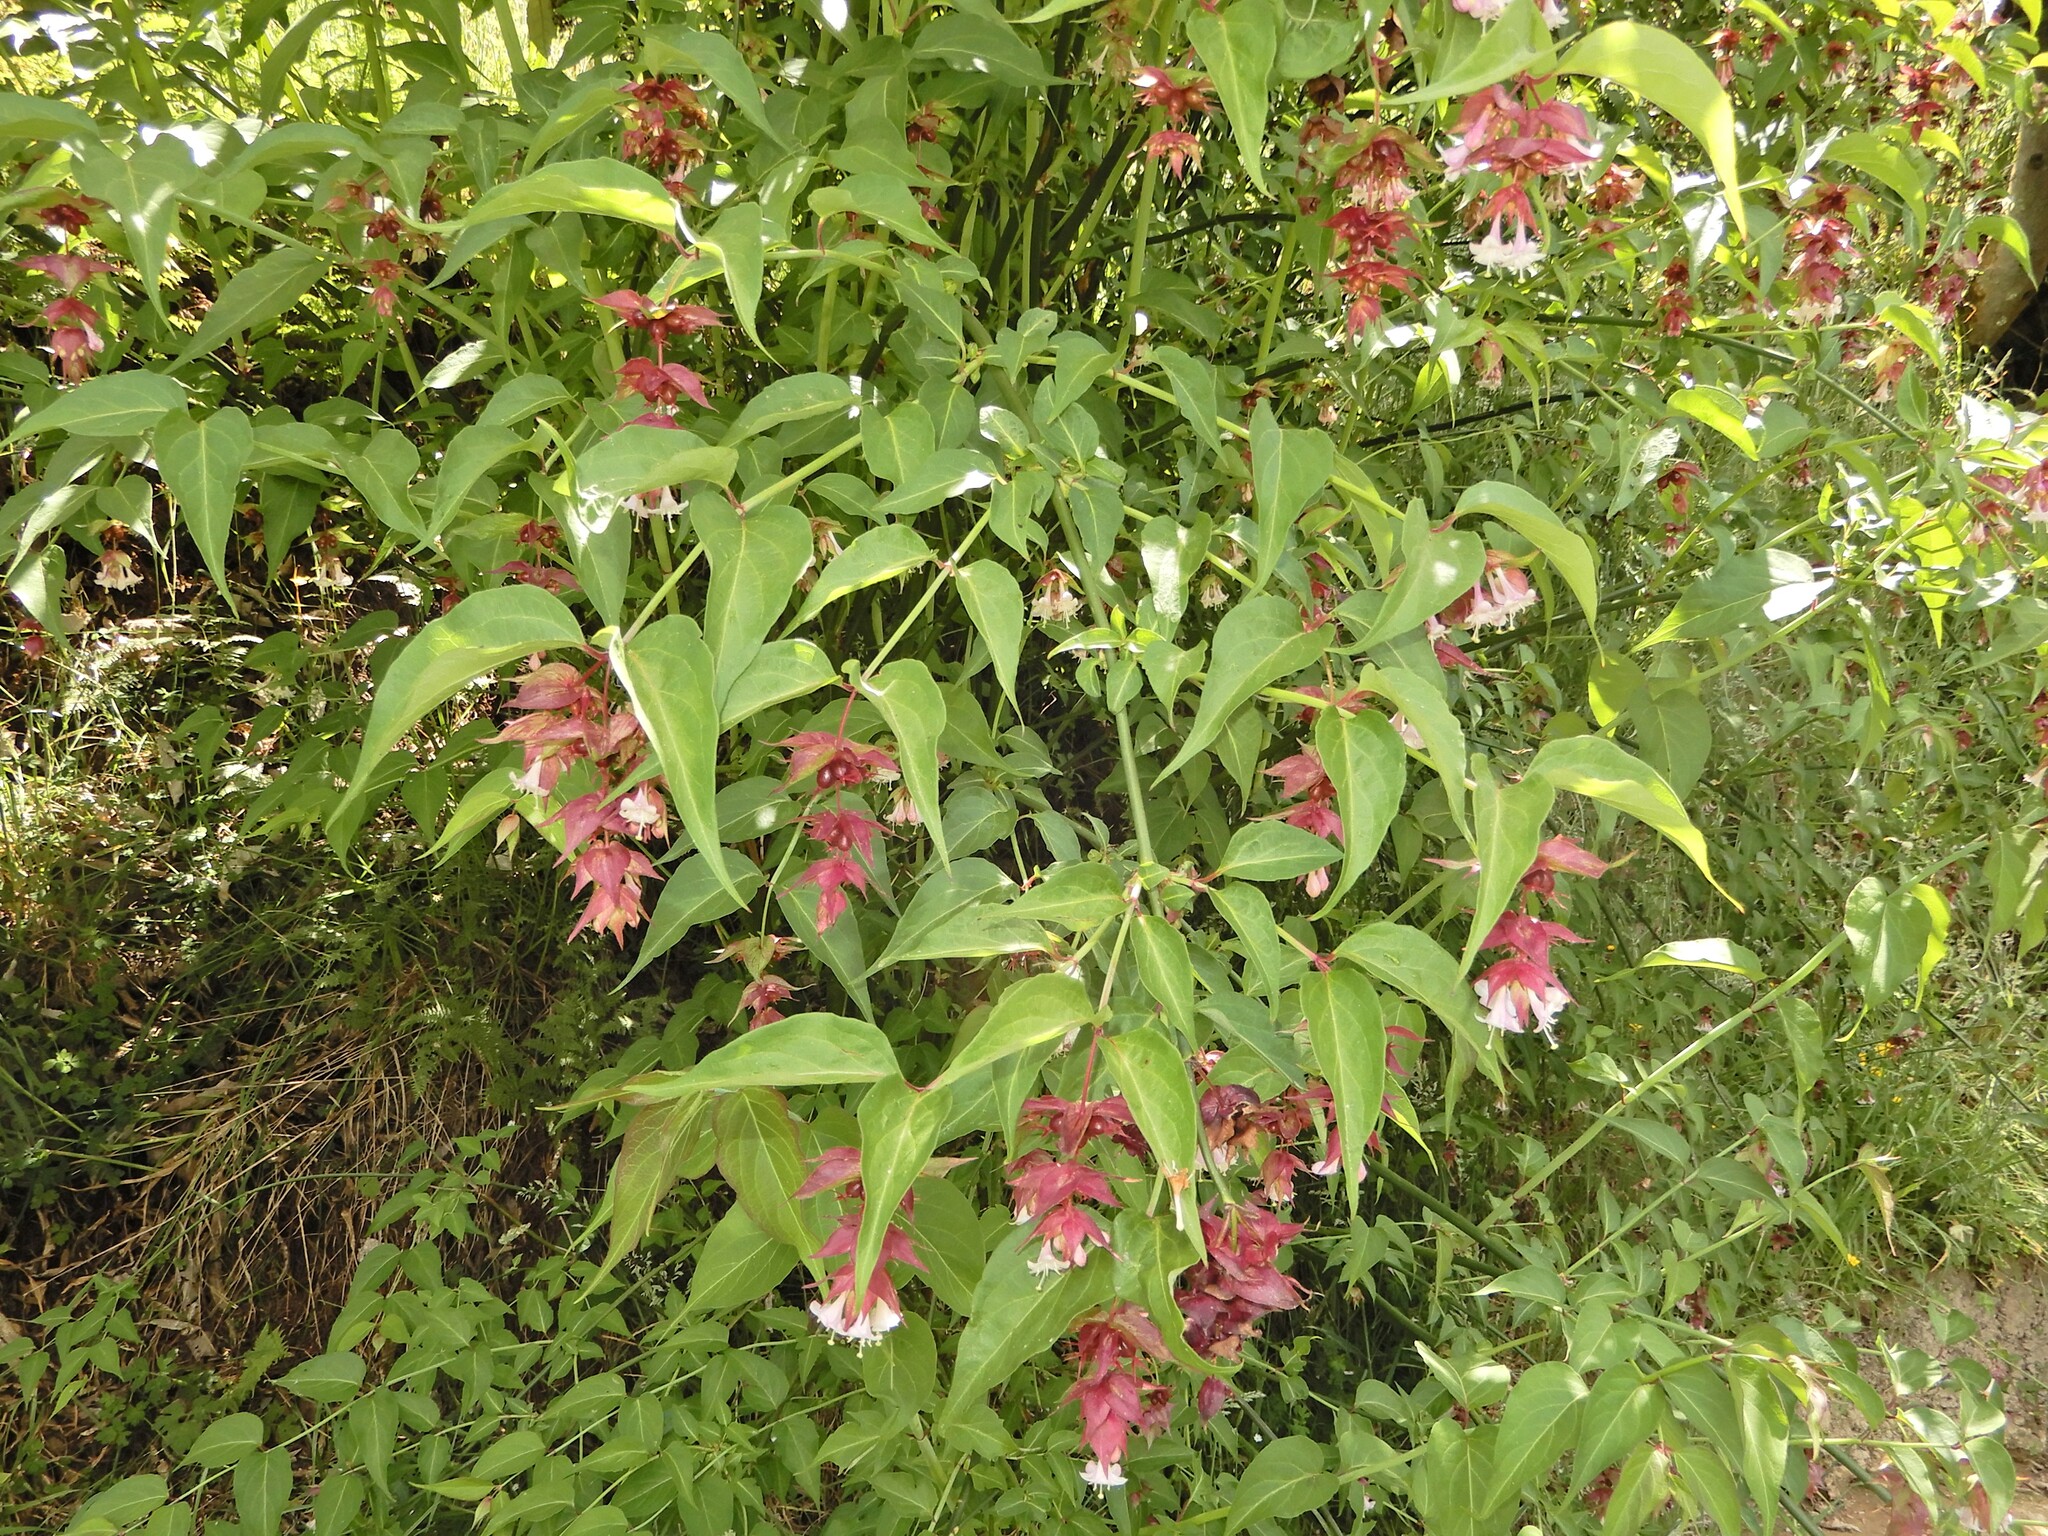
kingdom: Plantae
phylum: Tracheophyta
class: Magnoliopsida
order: Dipsacales
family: Caprifoliaceae
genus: Leycesteria
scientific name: Leycesteria formosa
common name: Himalayan honeysuckle
